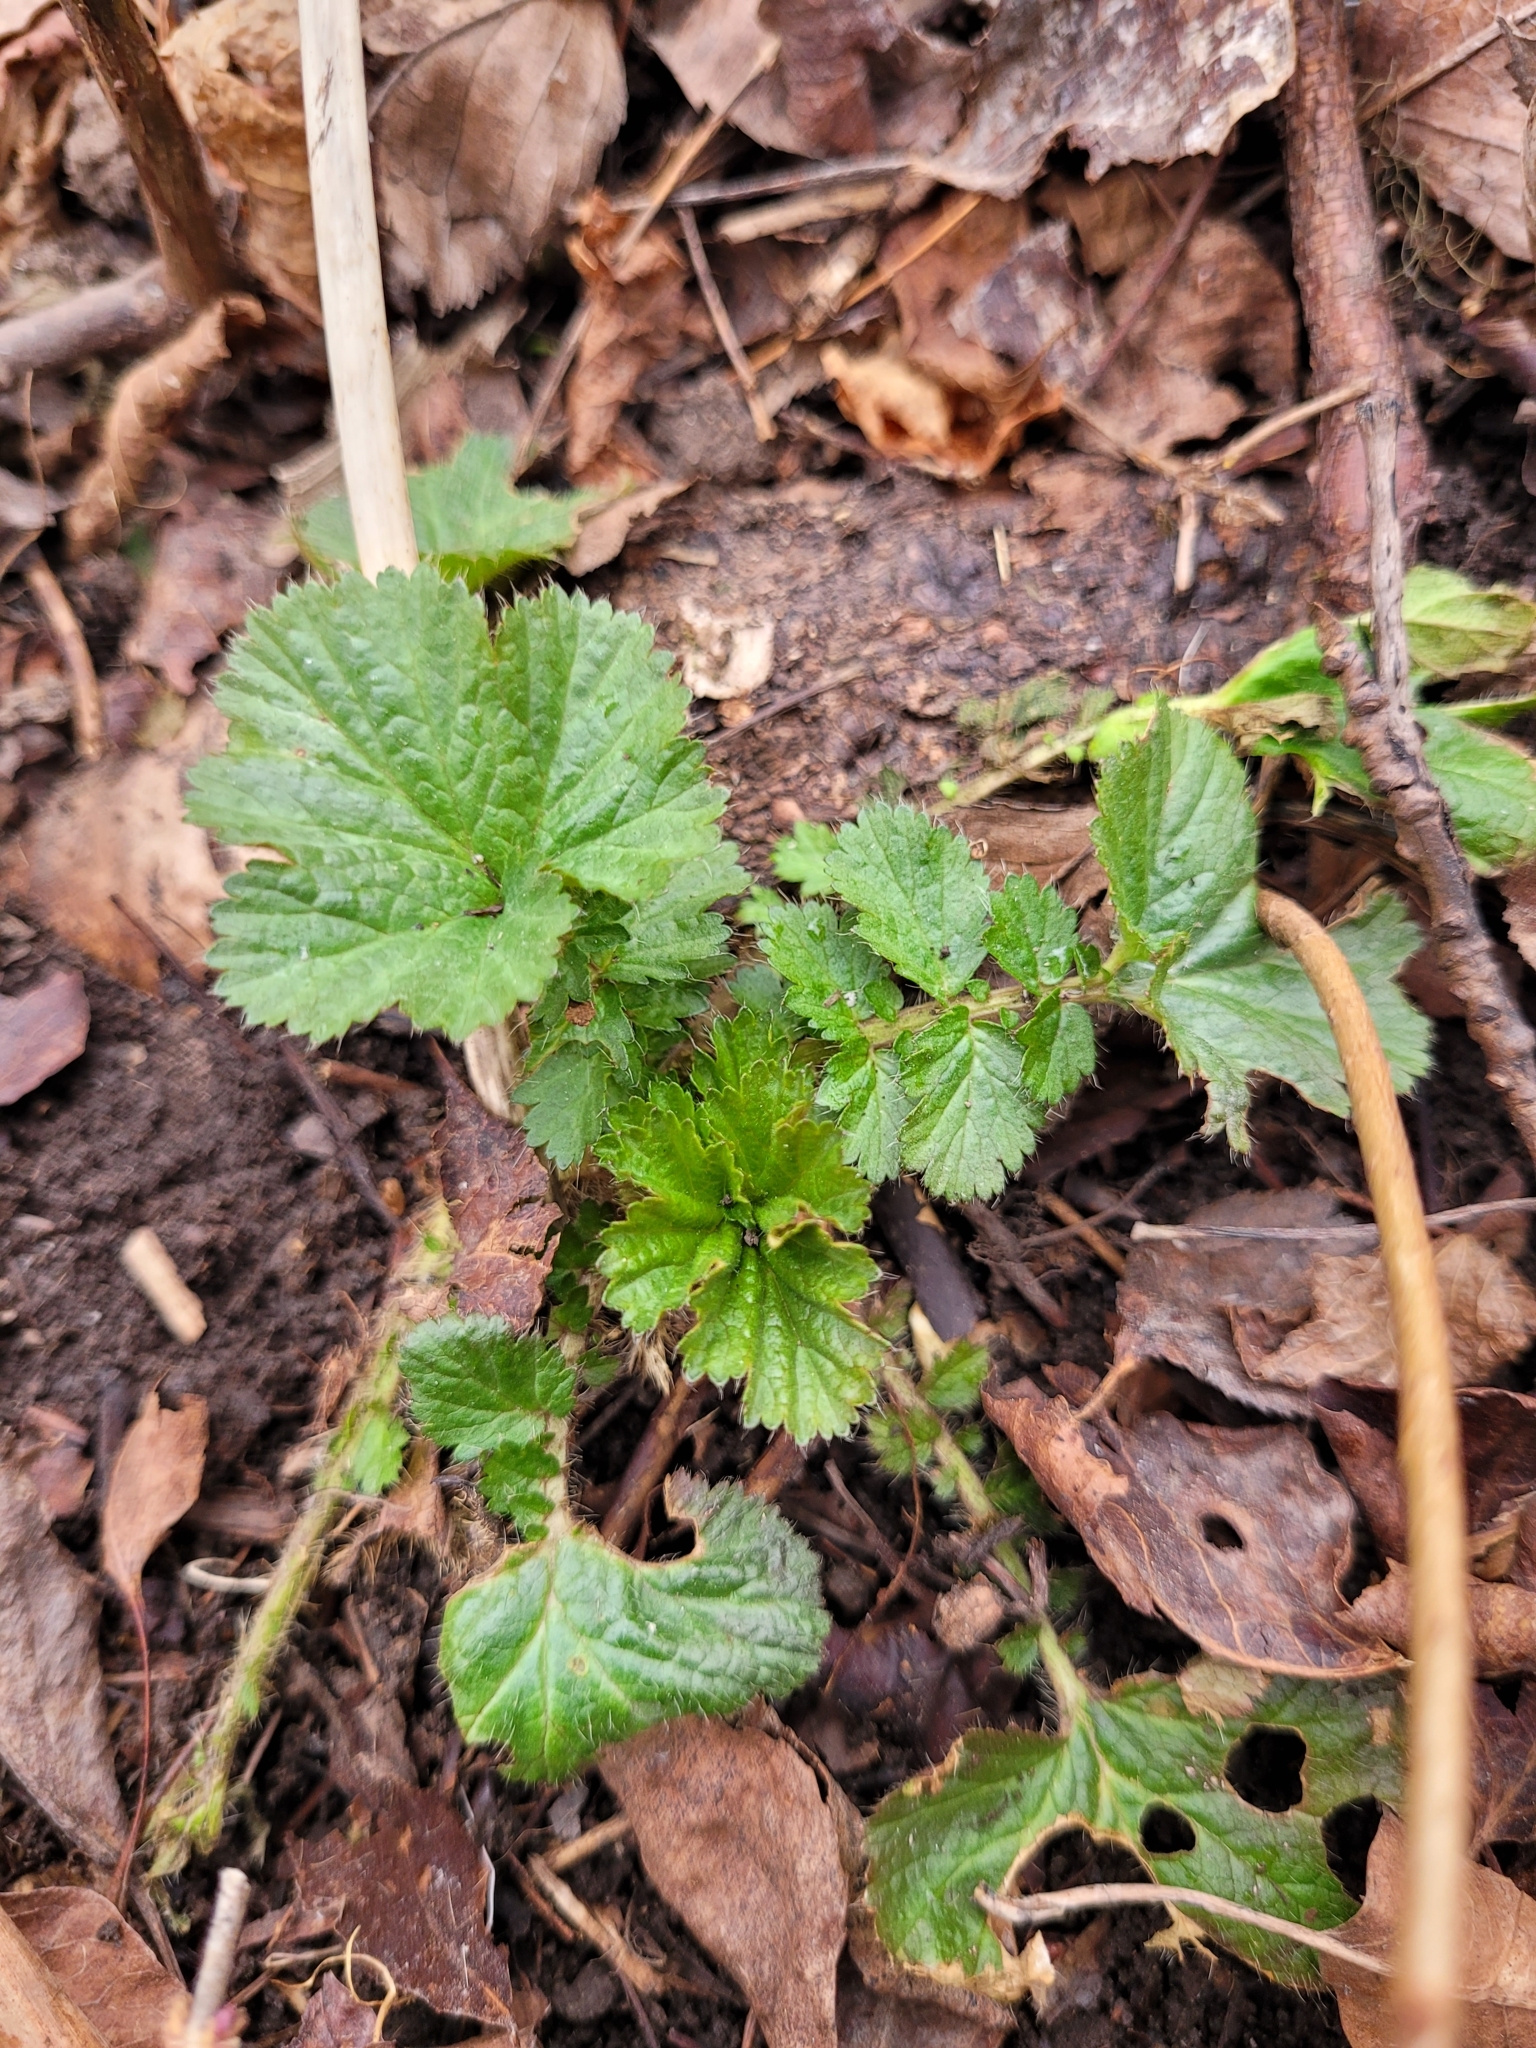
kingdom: Plantae
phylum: Tracheophyta
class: Magnoliopsida
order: Rosales
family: Rosaceae
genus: Geum
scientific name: Geum macrophyllum
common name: Large-leaved avens
